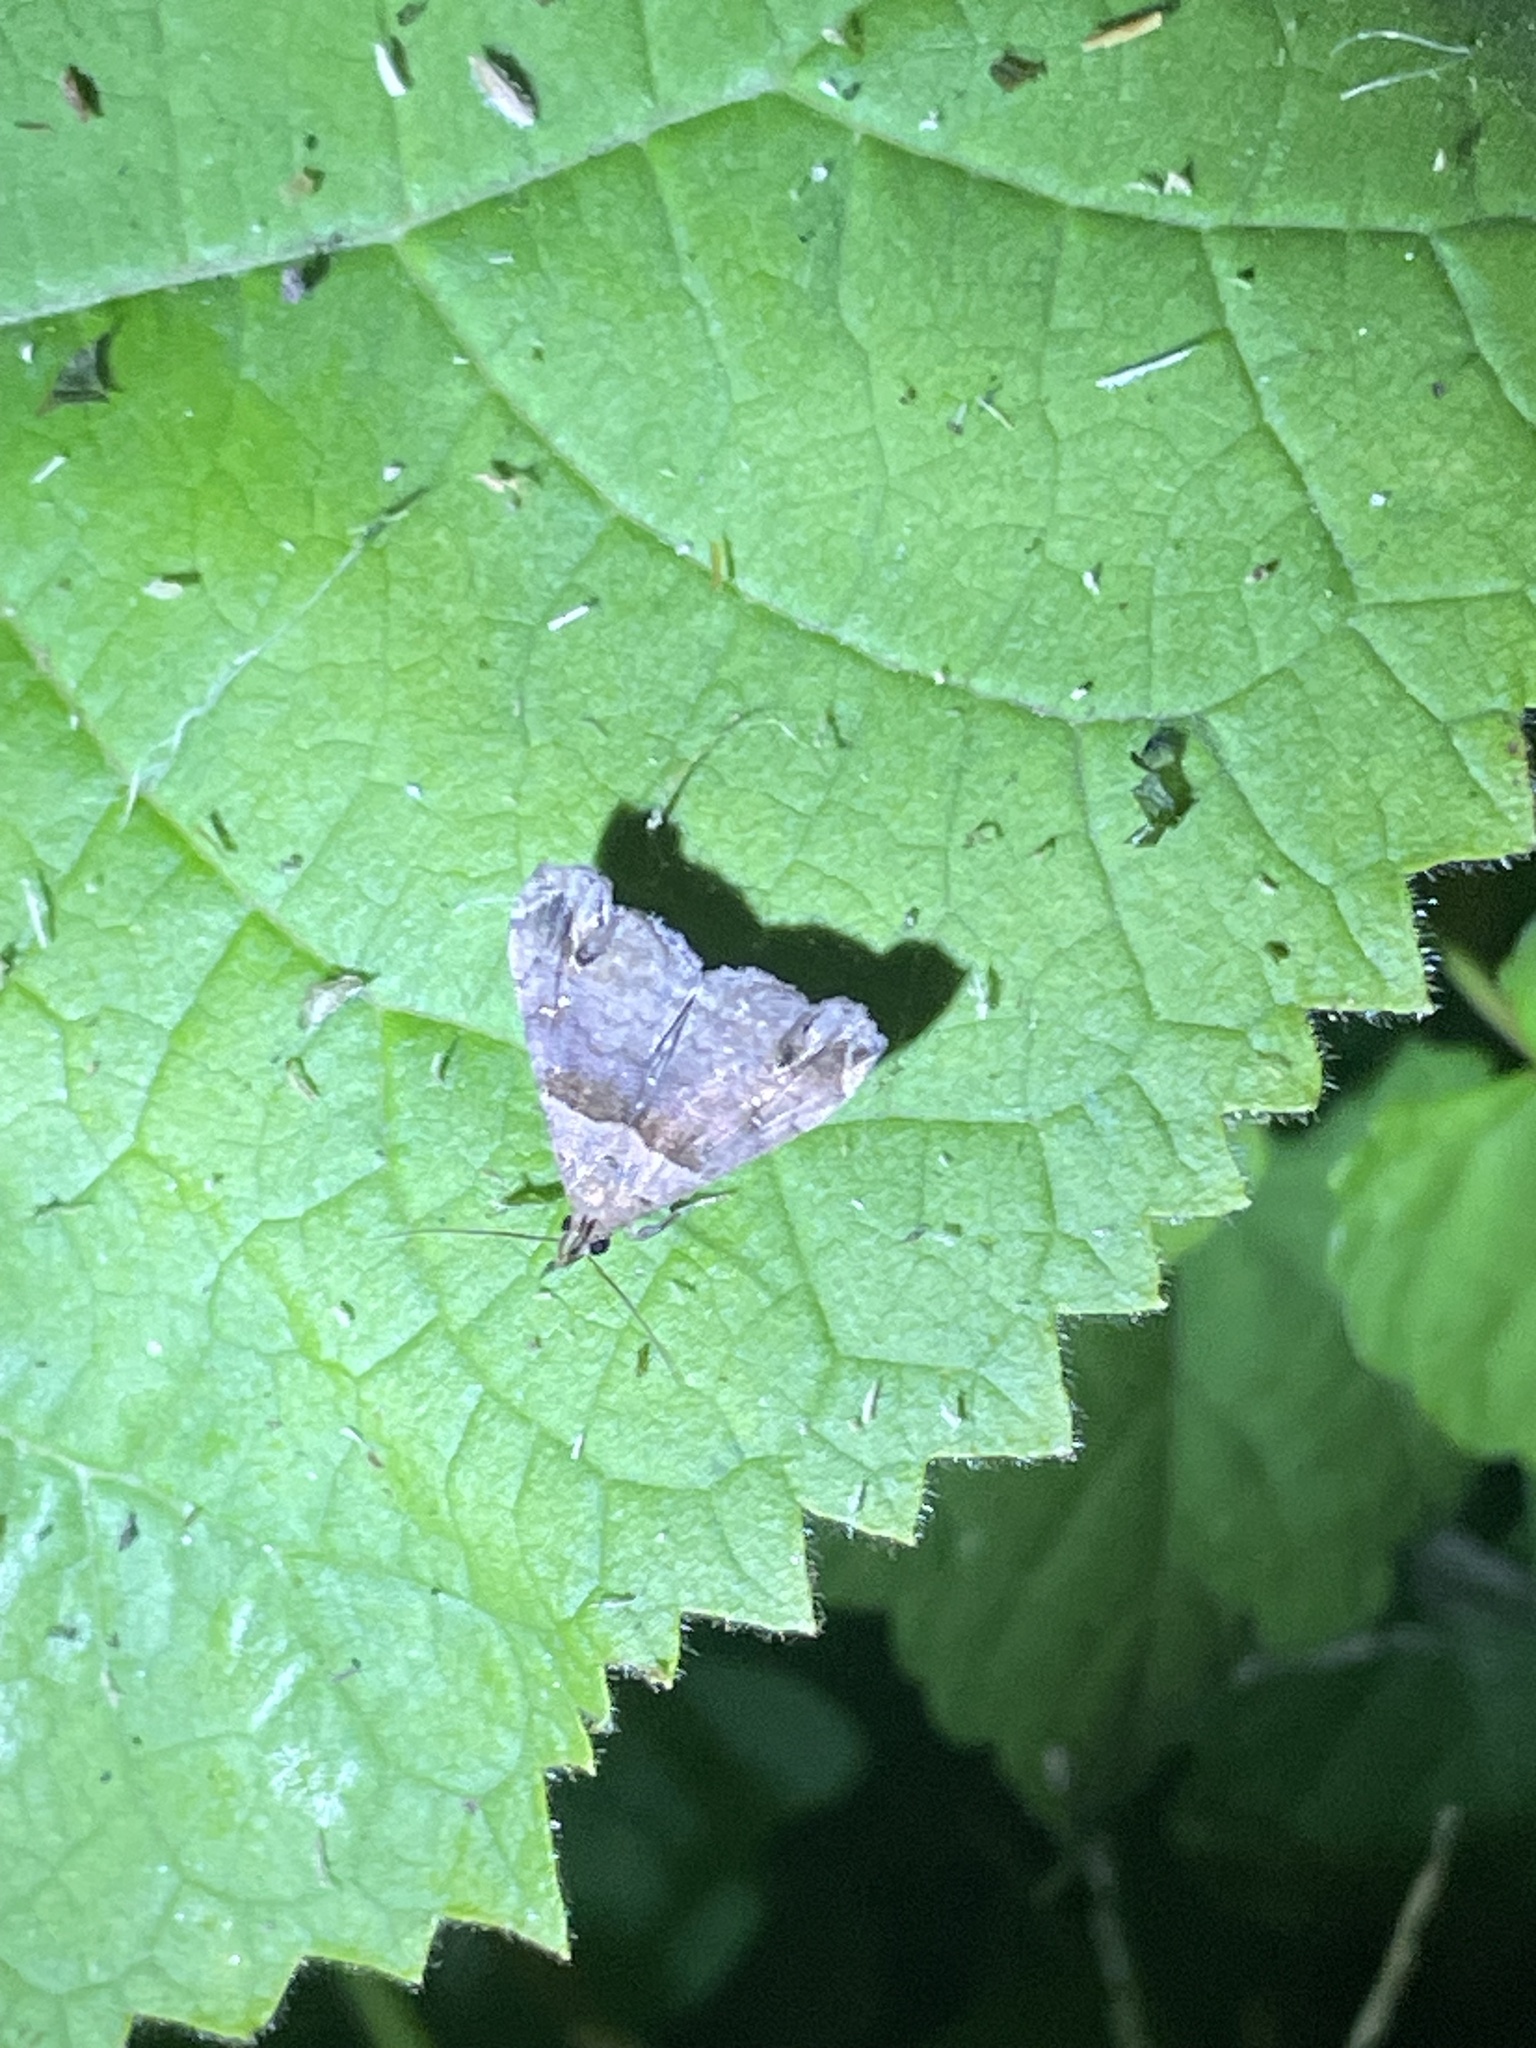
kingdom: Animalia
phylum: Arthropoda
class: Insecta
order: Lepidoptera
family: Erebidae
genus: Lascoria
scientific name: Lascoria ambigualis
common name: Ambiguous moth
